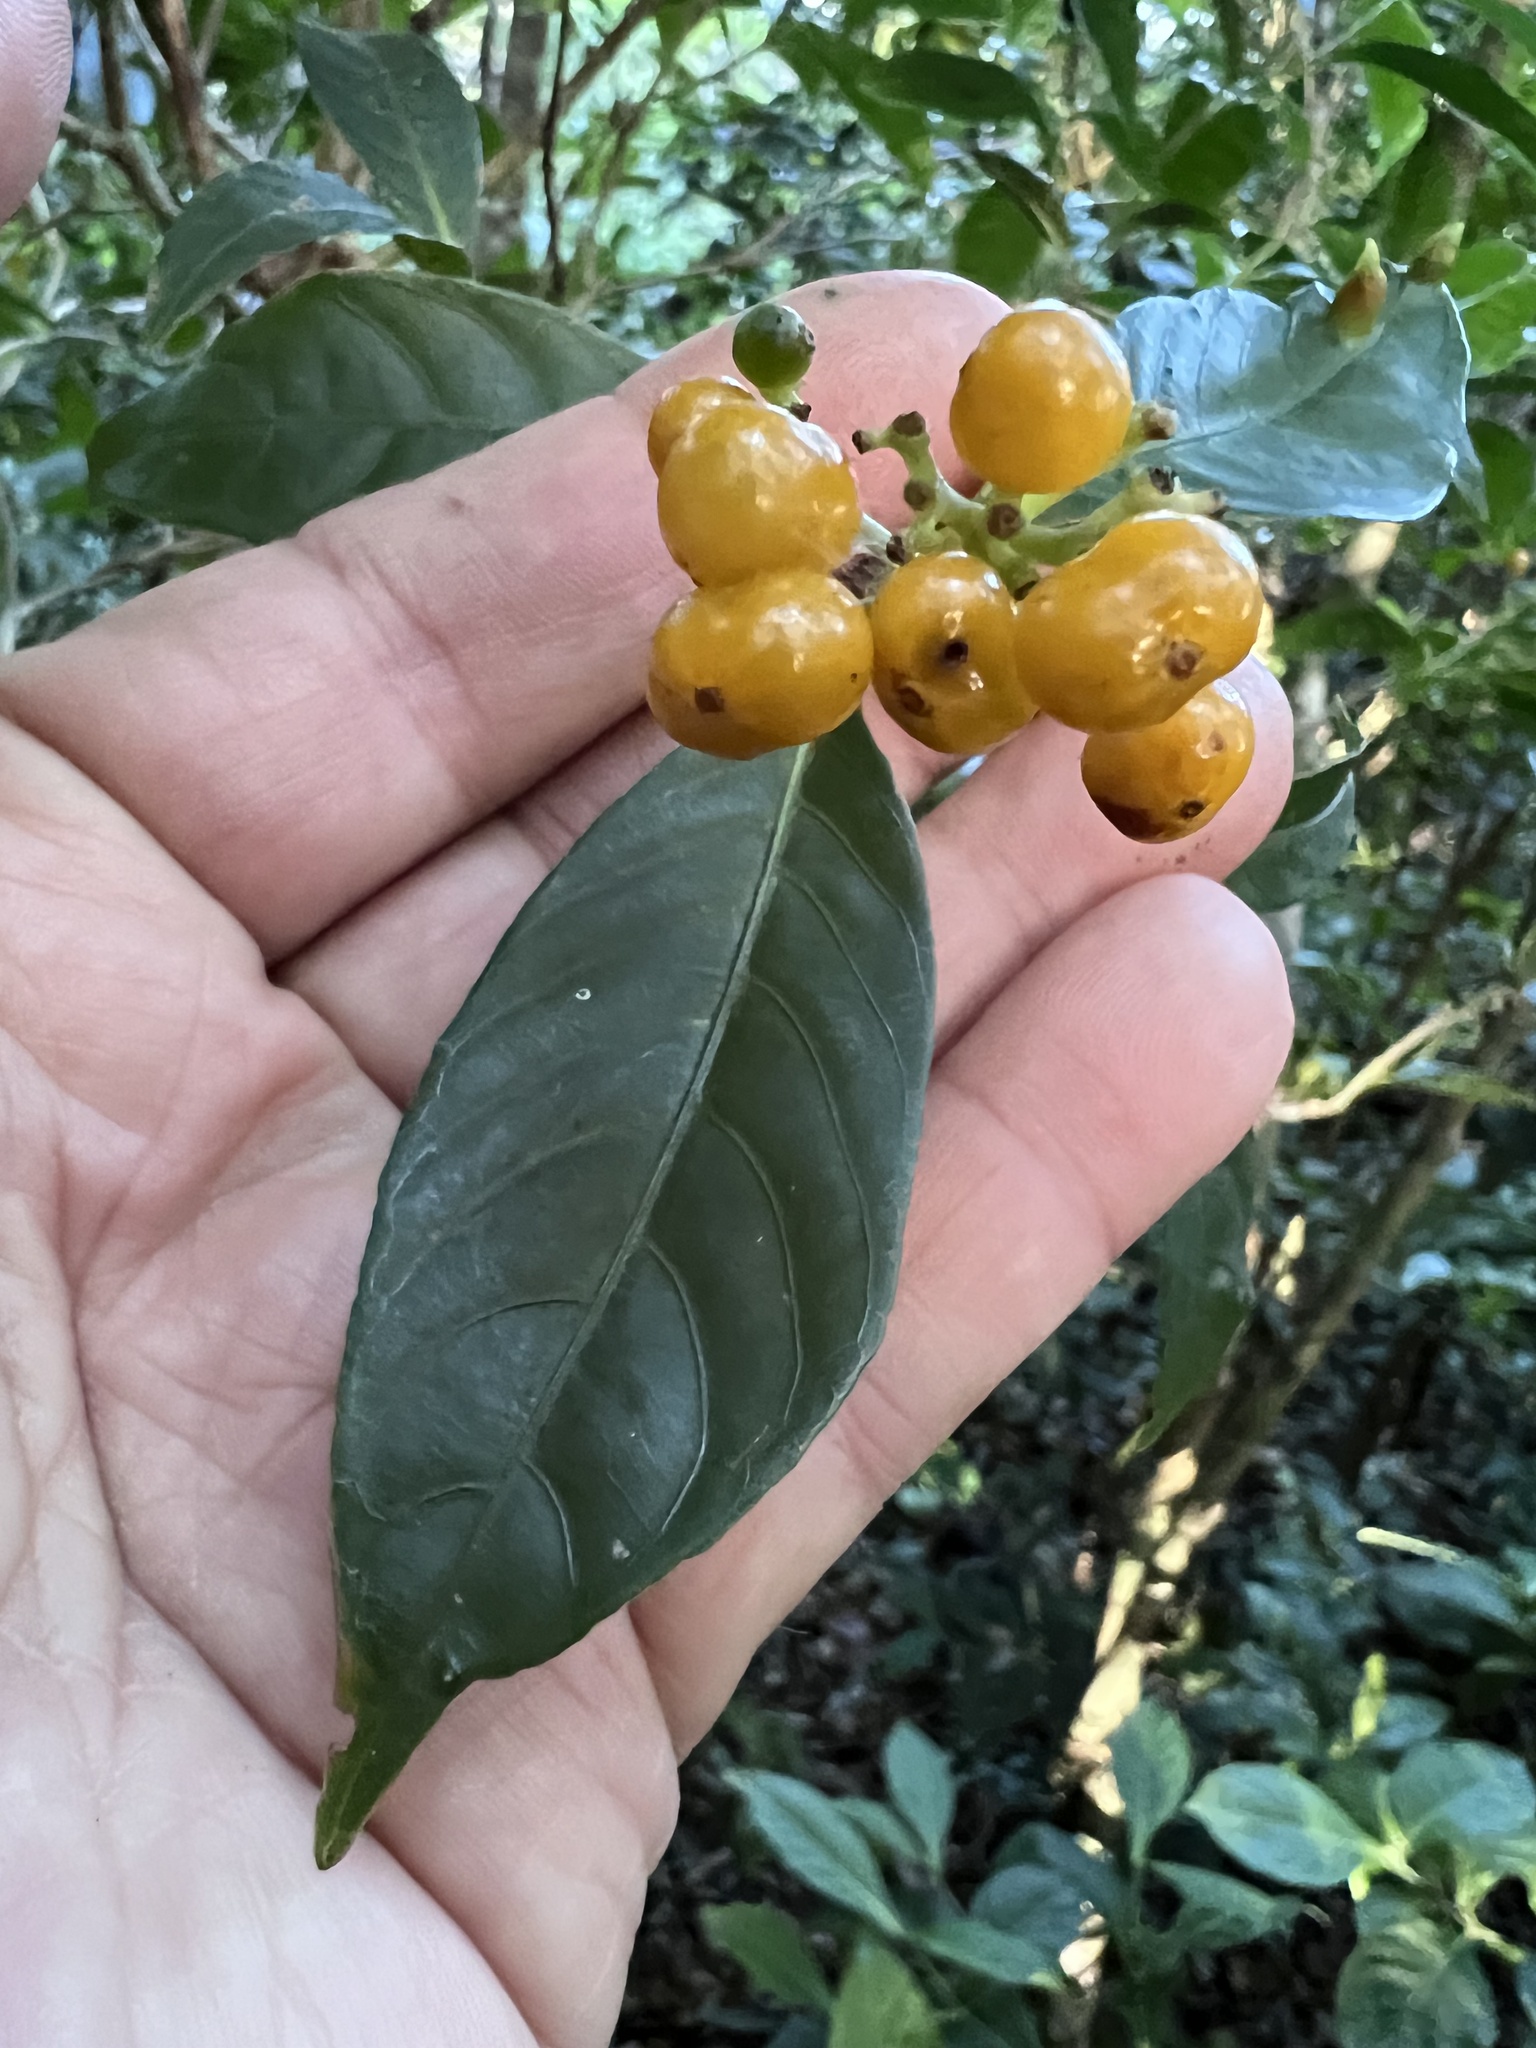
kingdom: Plantae
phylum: Tracheophyta
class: Magnoliopsida
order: Gentianales
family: Rubiaceae
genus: Palicourea
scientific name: Palicourea valeriana
